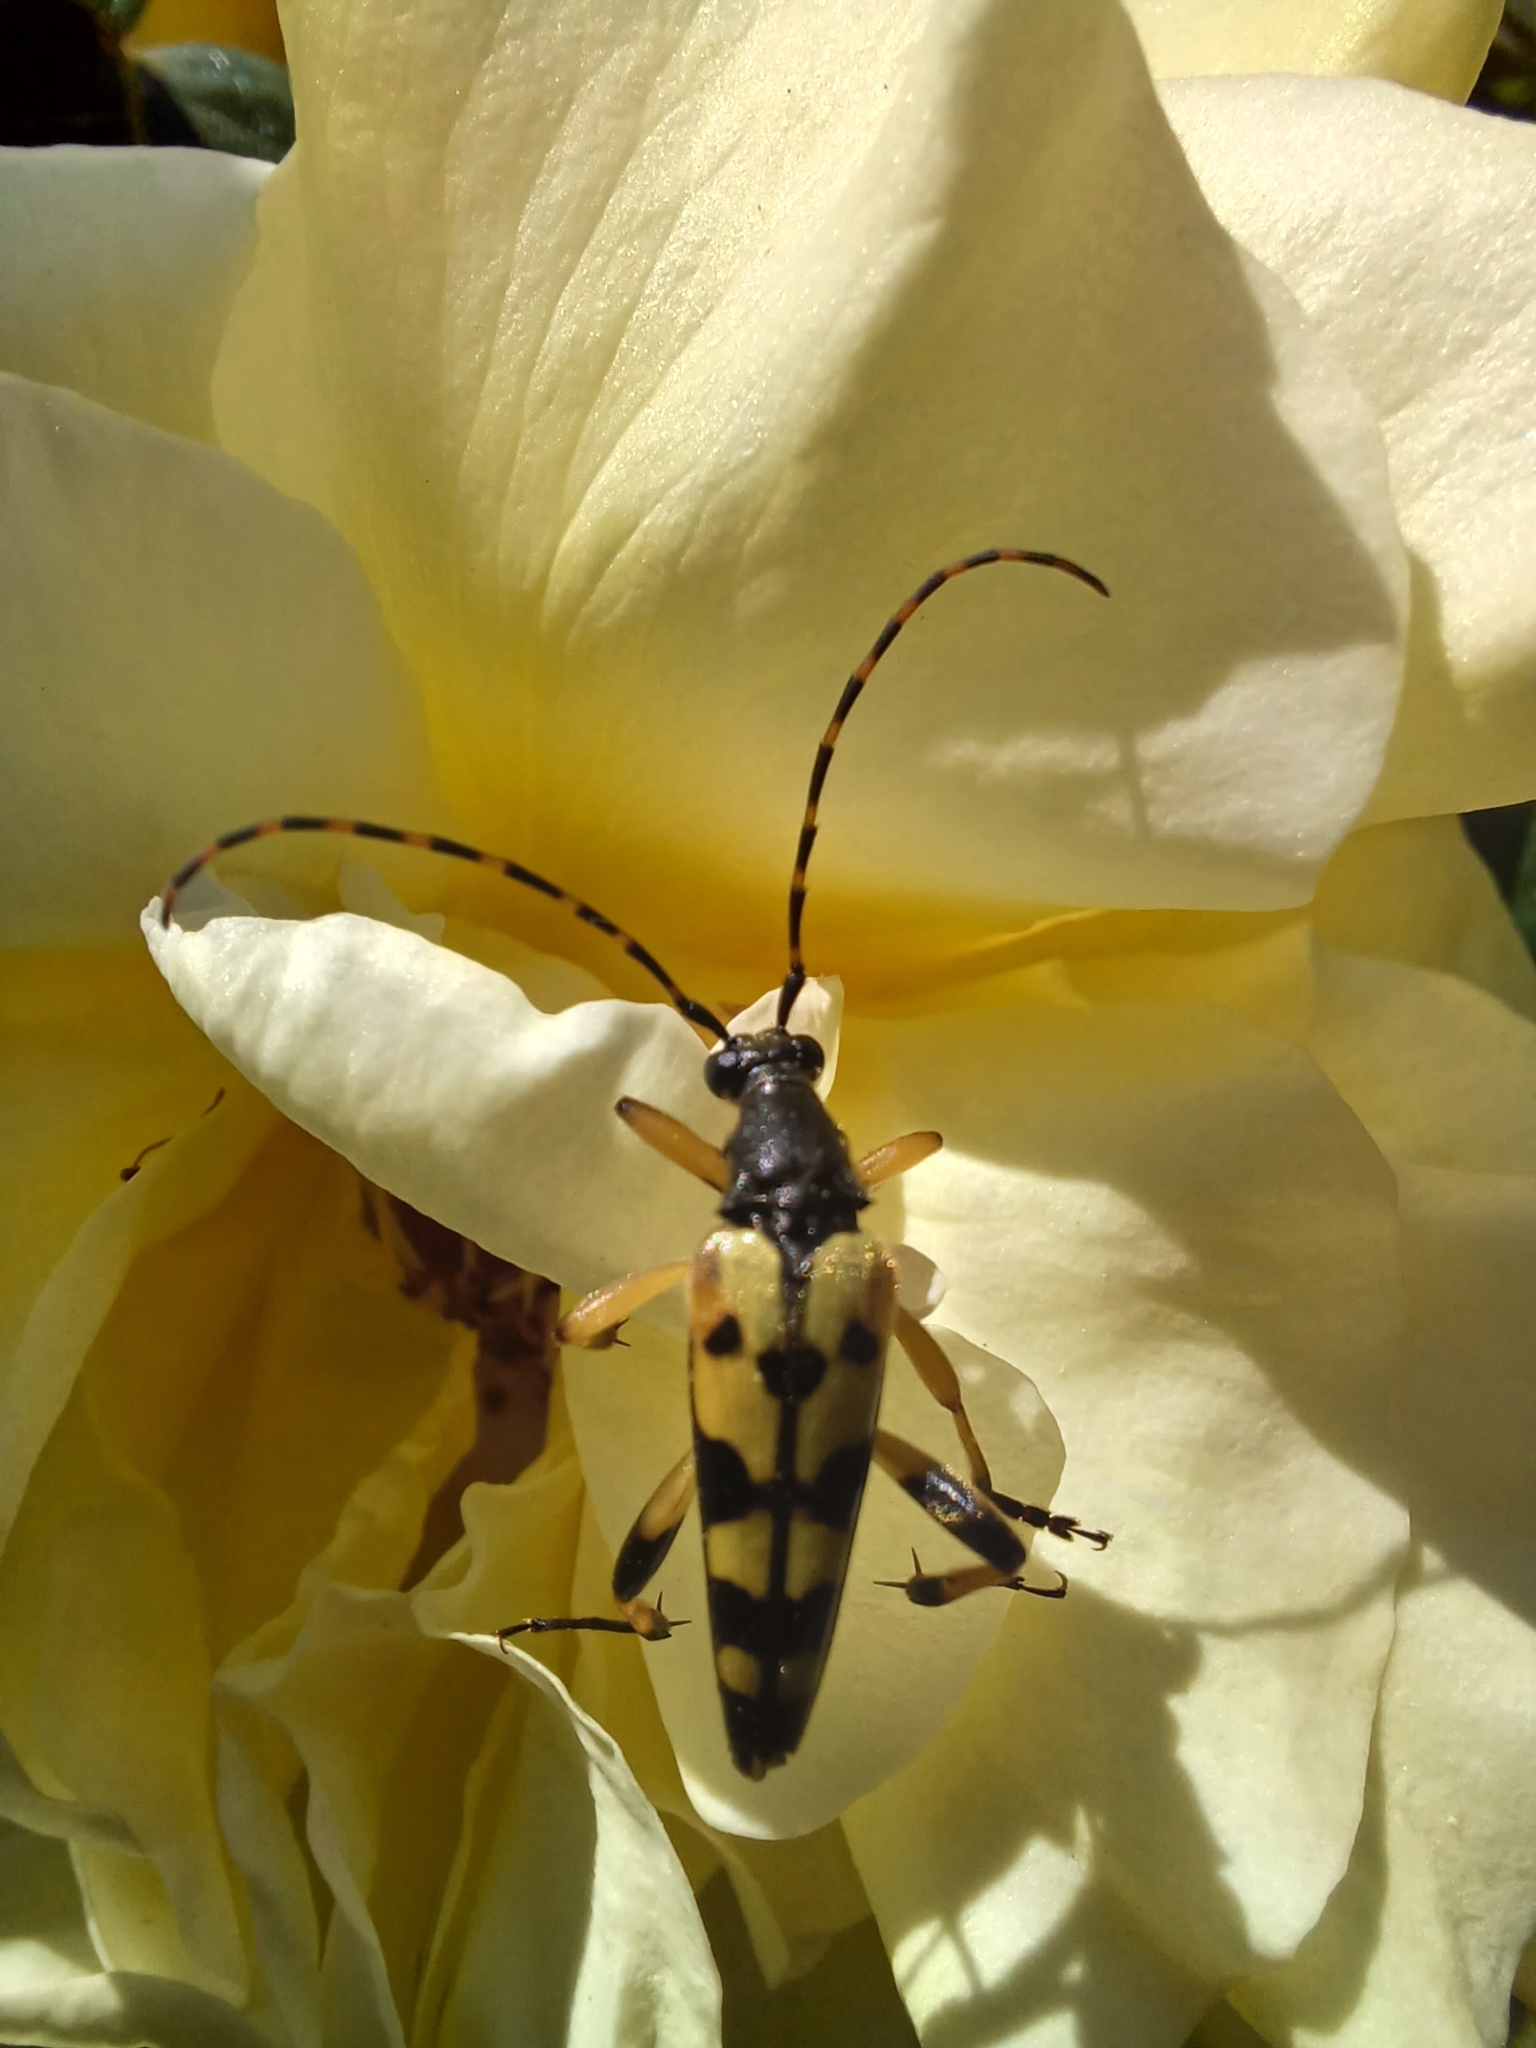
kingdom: Animalia
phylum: Arthropoda
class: Insecta
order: Coleoptera
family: Cerambycidae
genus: Rutpela
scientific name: Rutpela maculata
